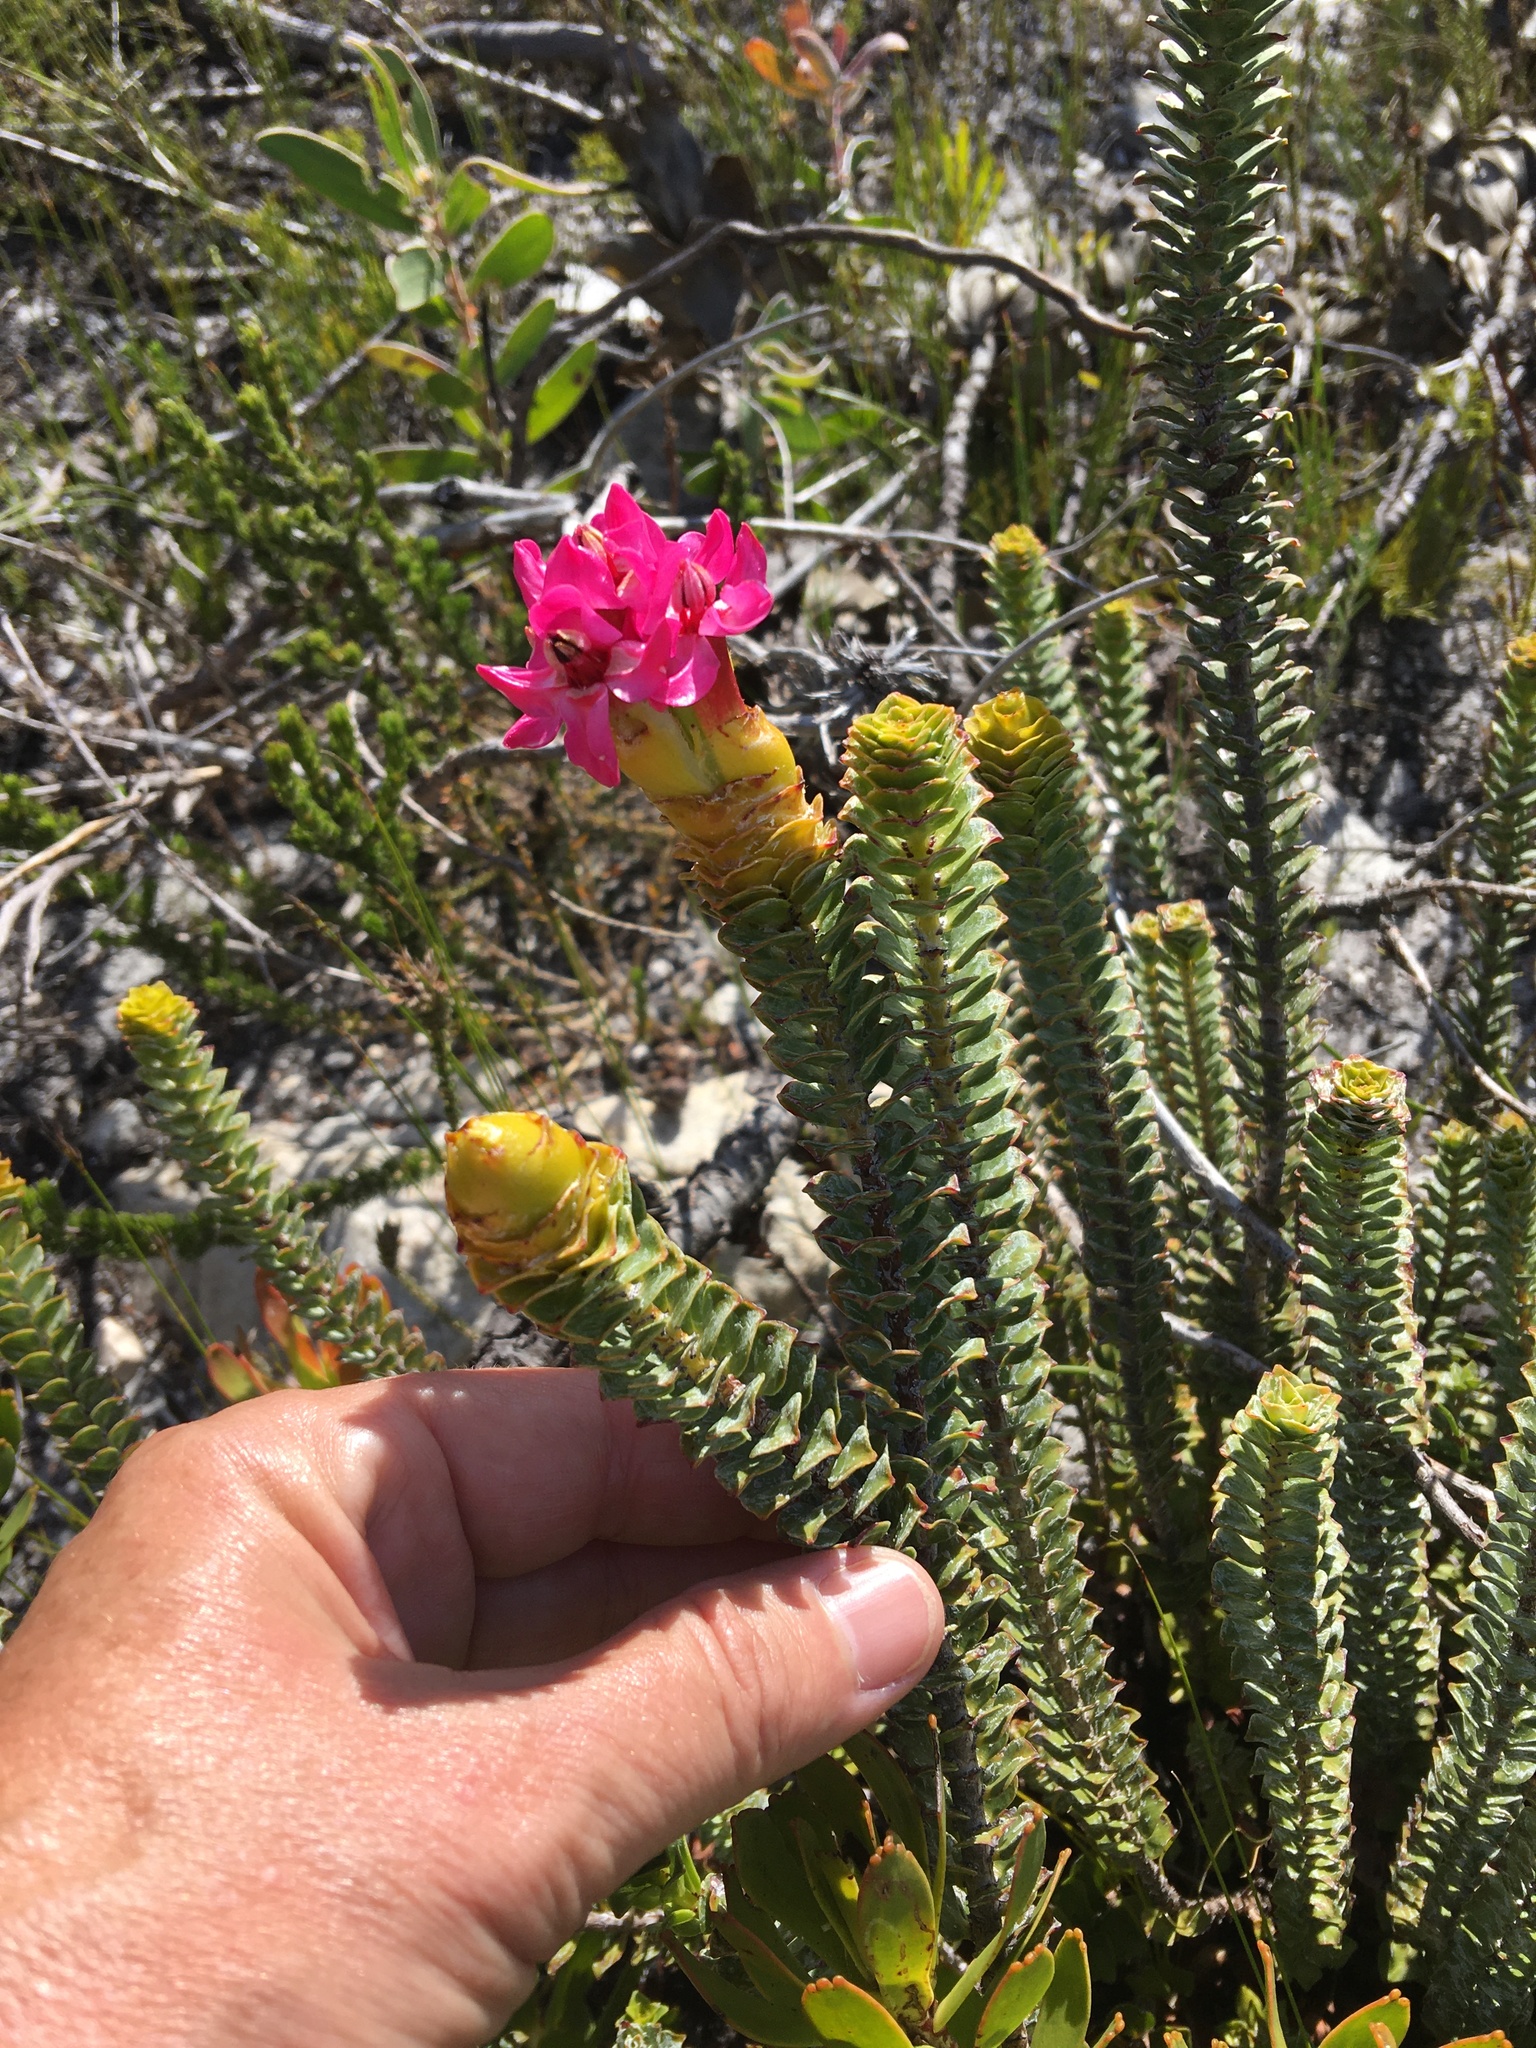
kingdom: Plantae
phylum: Tracheophyta
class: Magnoliopsida
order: Myrtales
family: Penaeaceae
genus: Saltera
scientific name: Saltera sarcocolla
